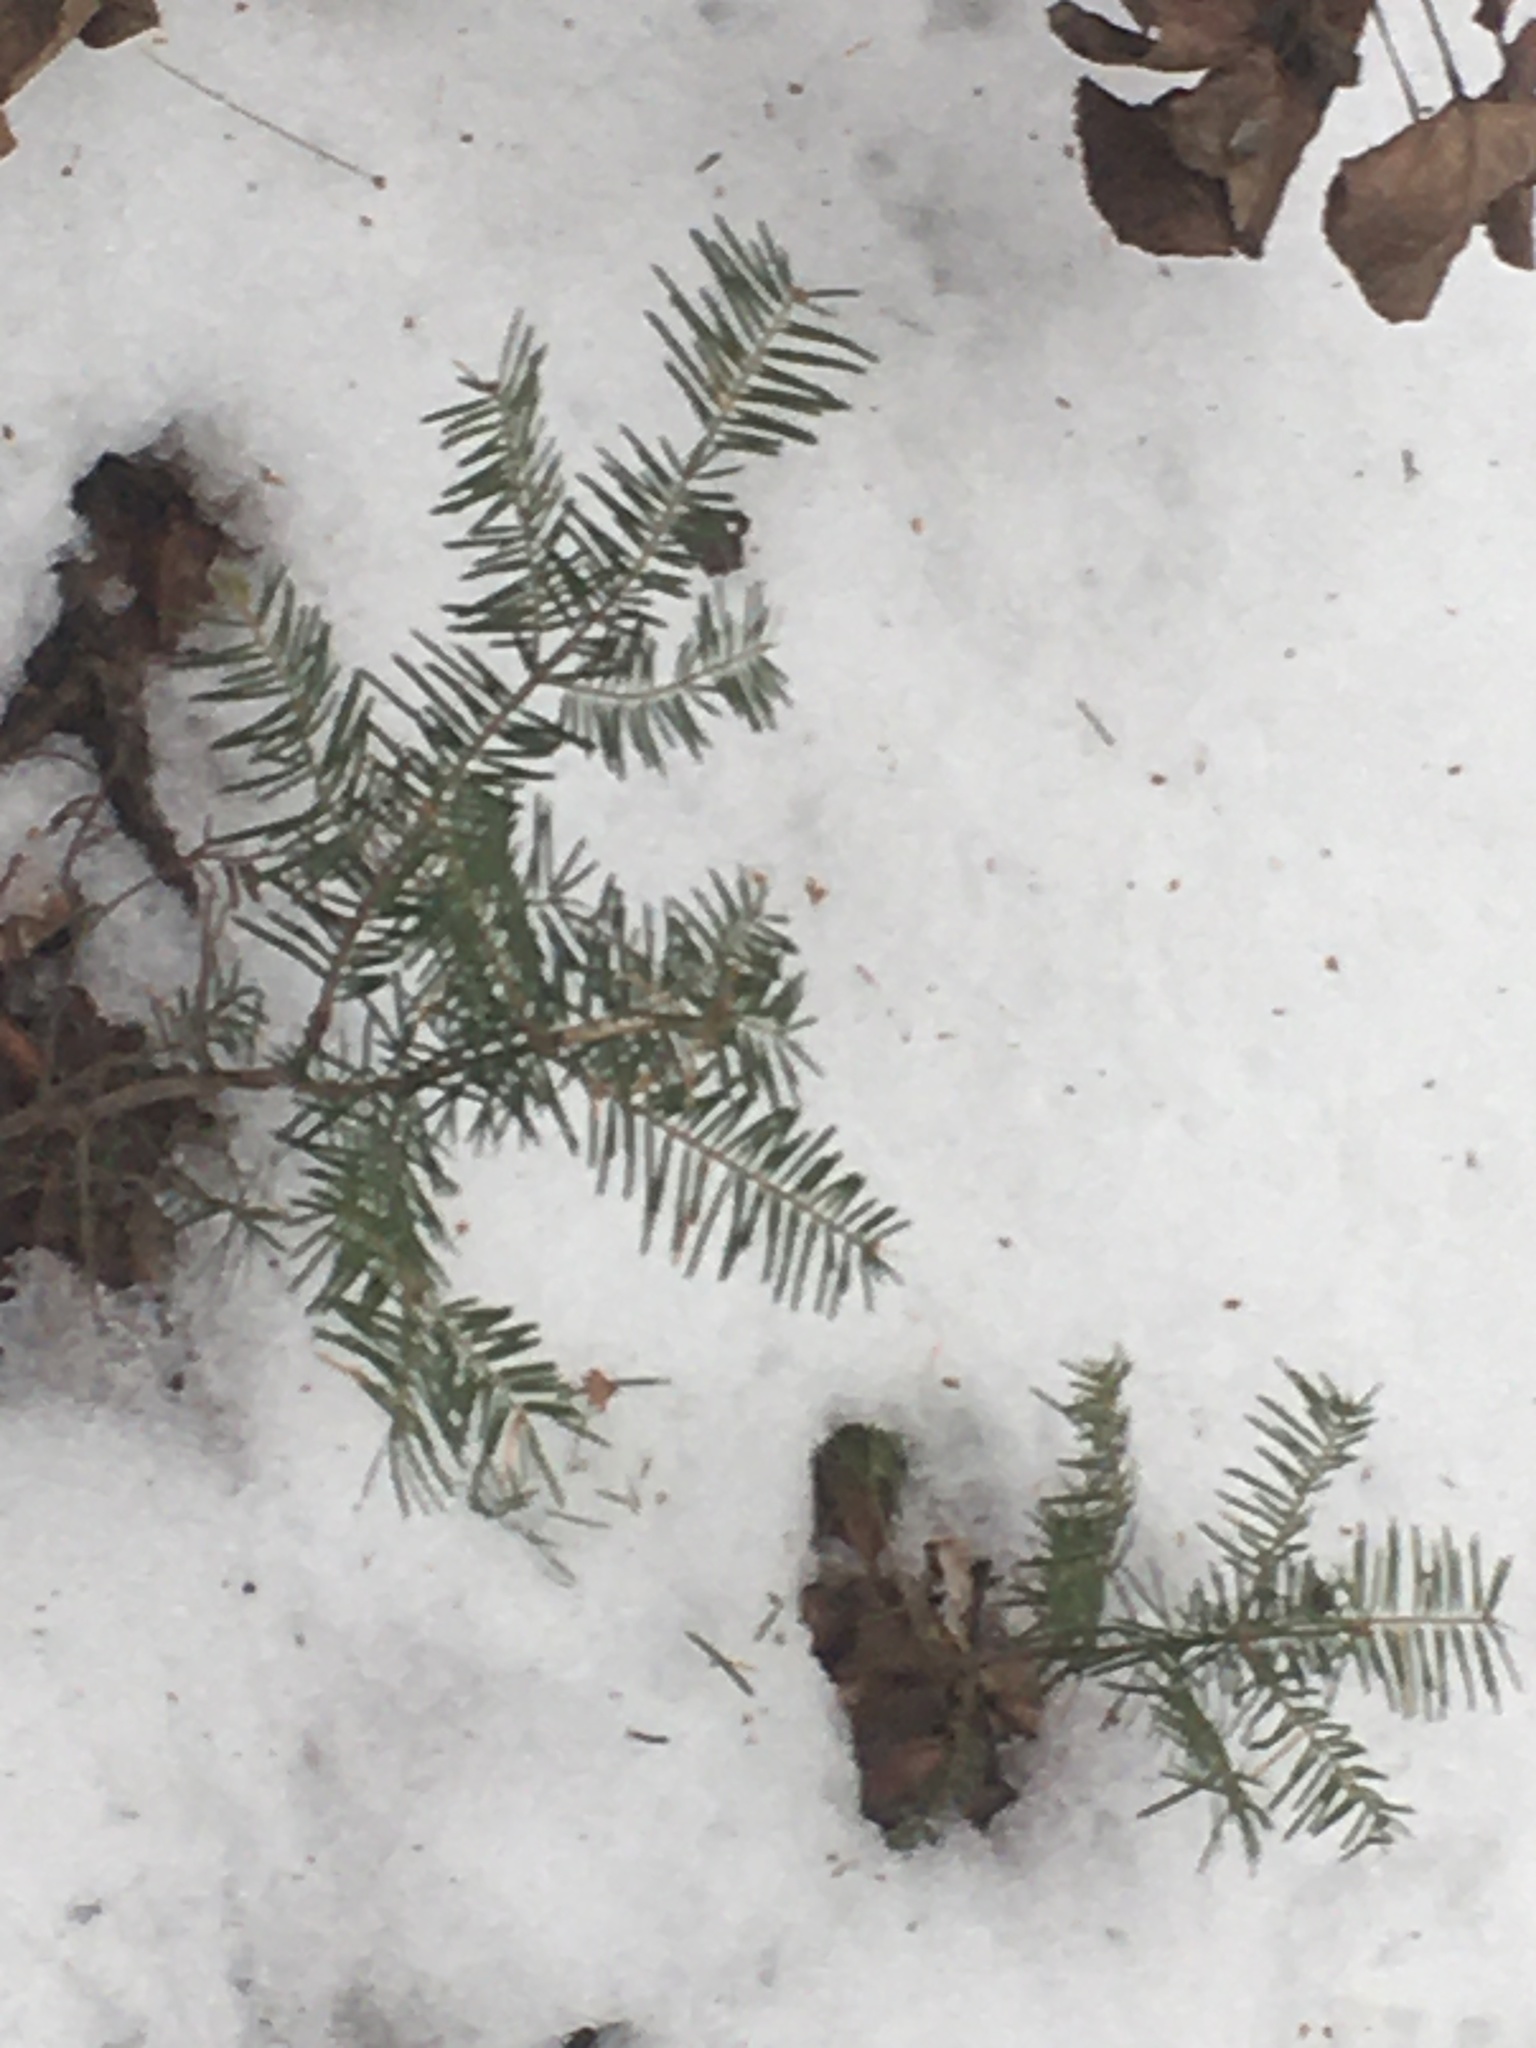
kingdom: Plantae
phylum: Tracheophyta
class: Pinopsida
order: Pinales
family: Pinaceae
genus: Abies
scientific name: Abies balsamea
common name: Balsam fir
